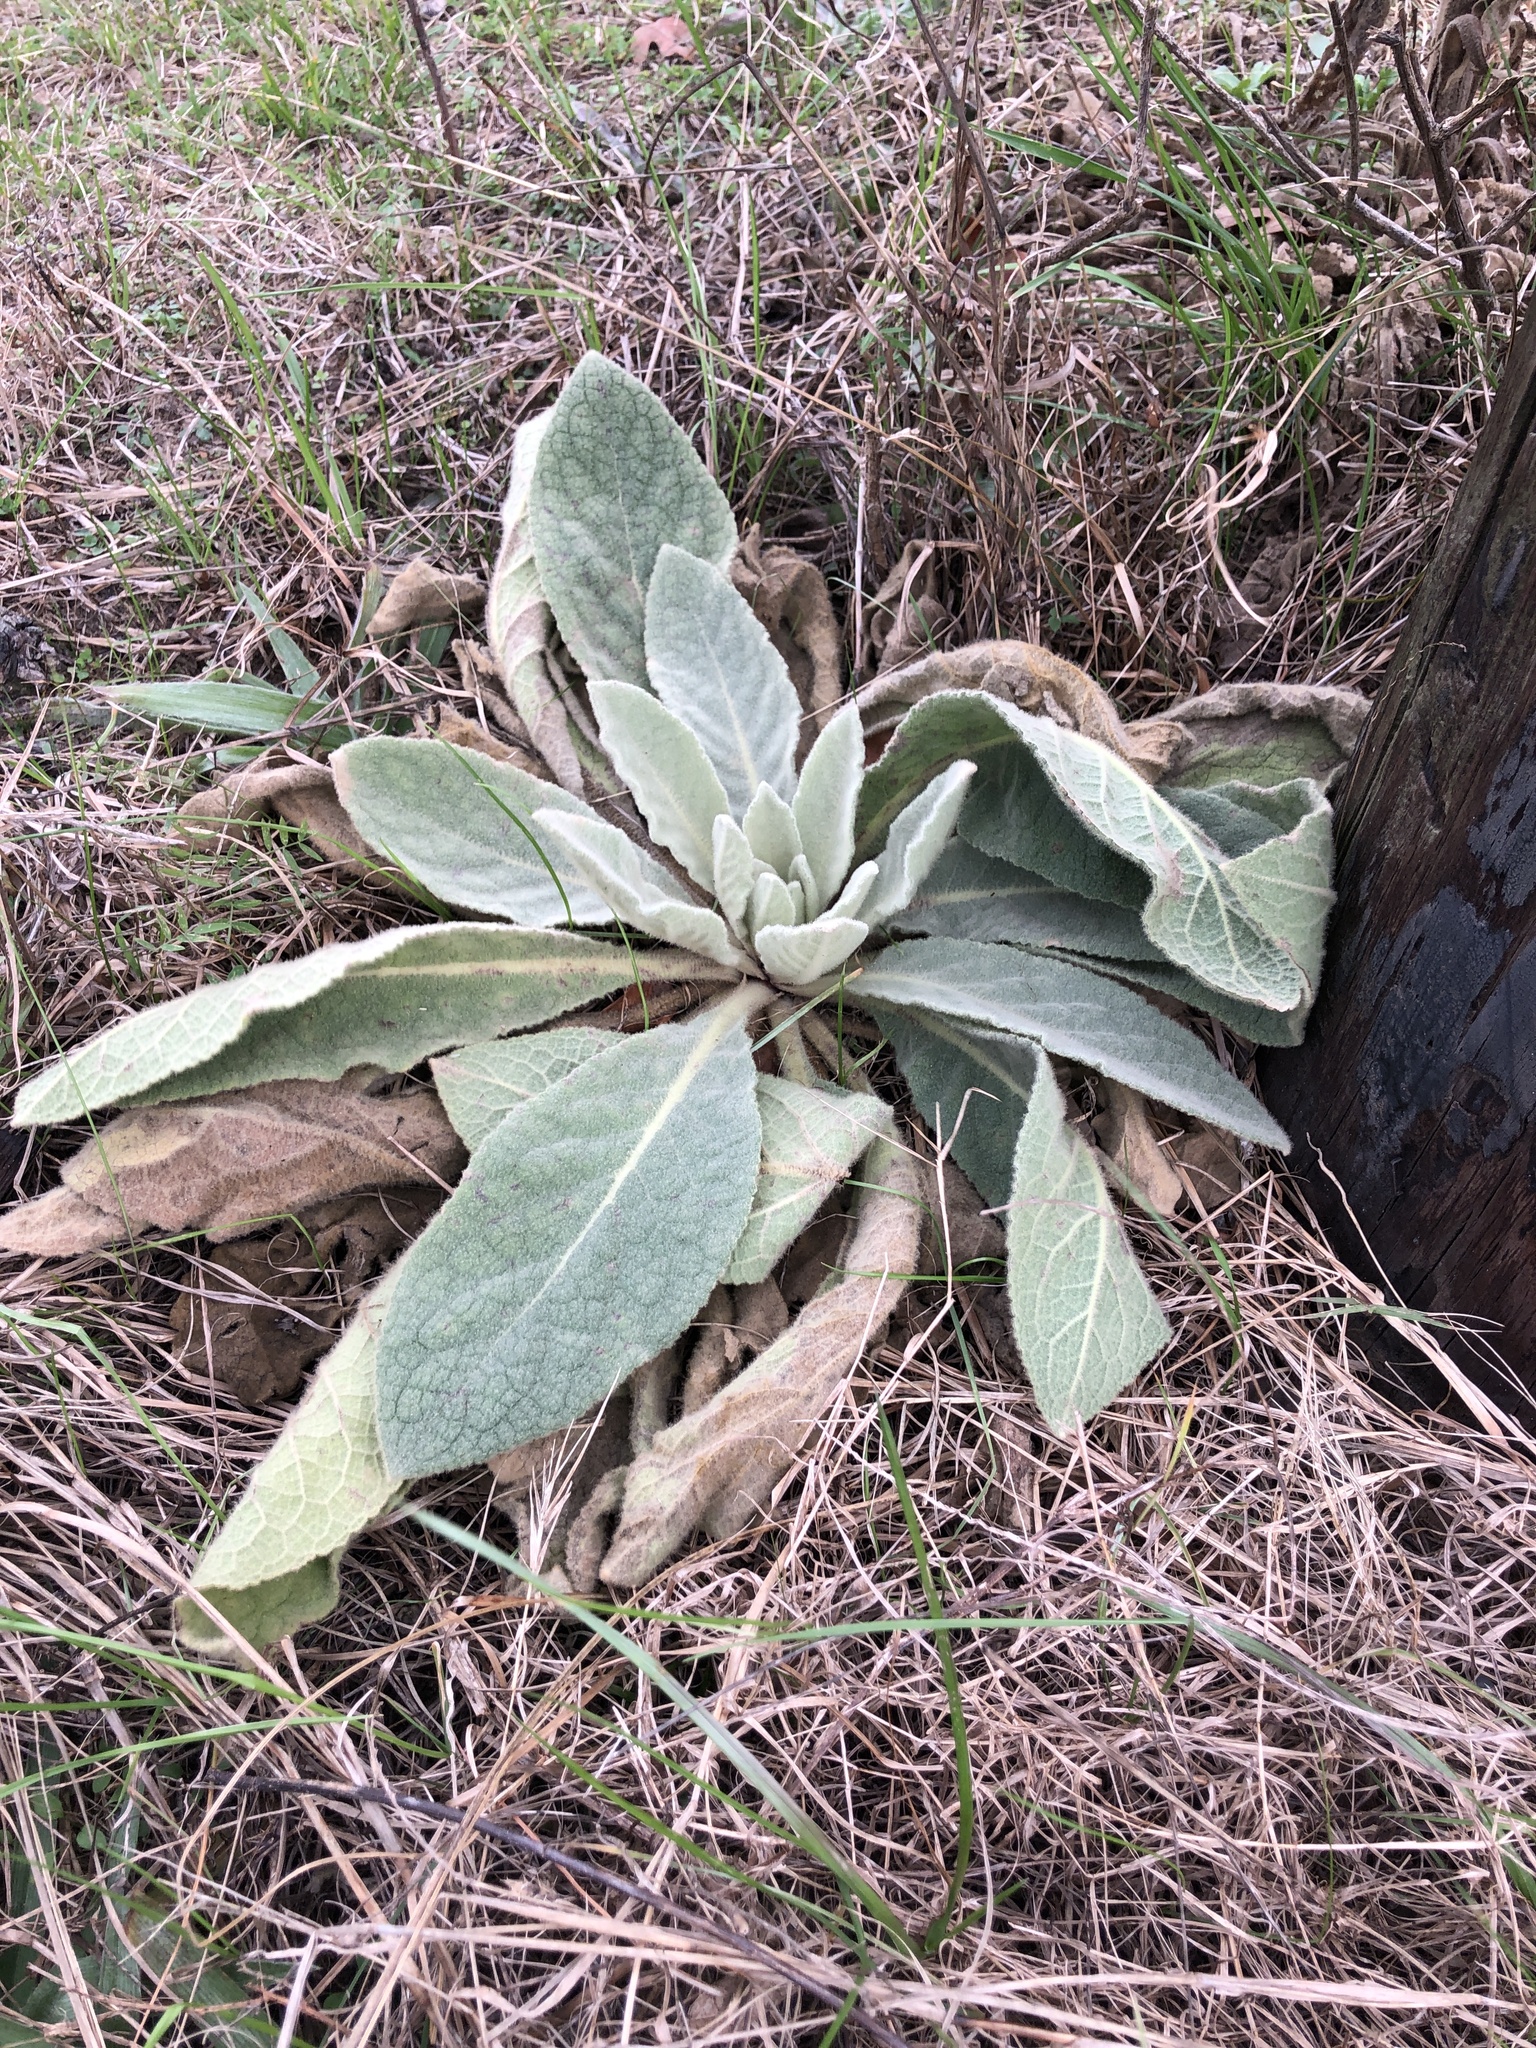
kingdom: Plantae
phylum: Tracheophyta
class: Magnoliopsida
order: Lamiales
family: Scrophulariaceae
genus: Verbascum
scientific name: Verbascum thapsus
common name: Common mullein
